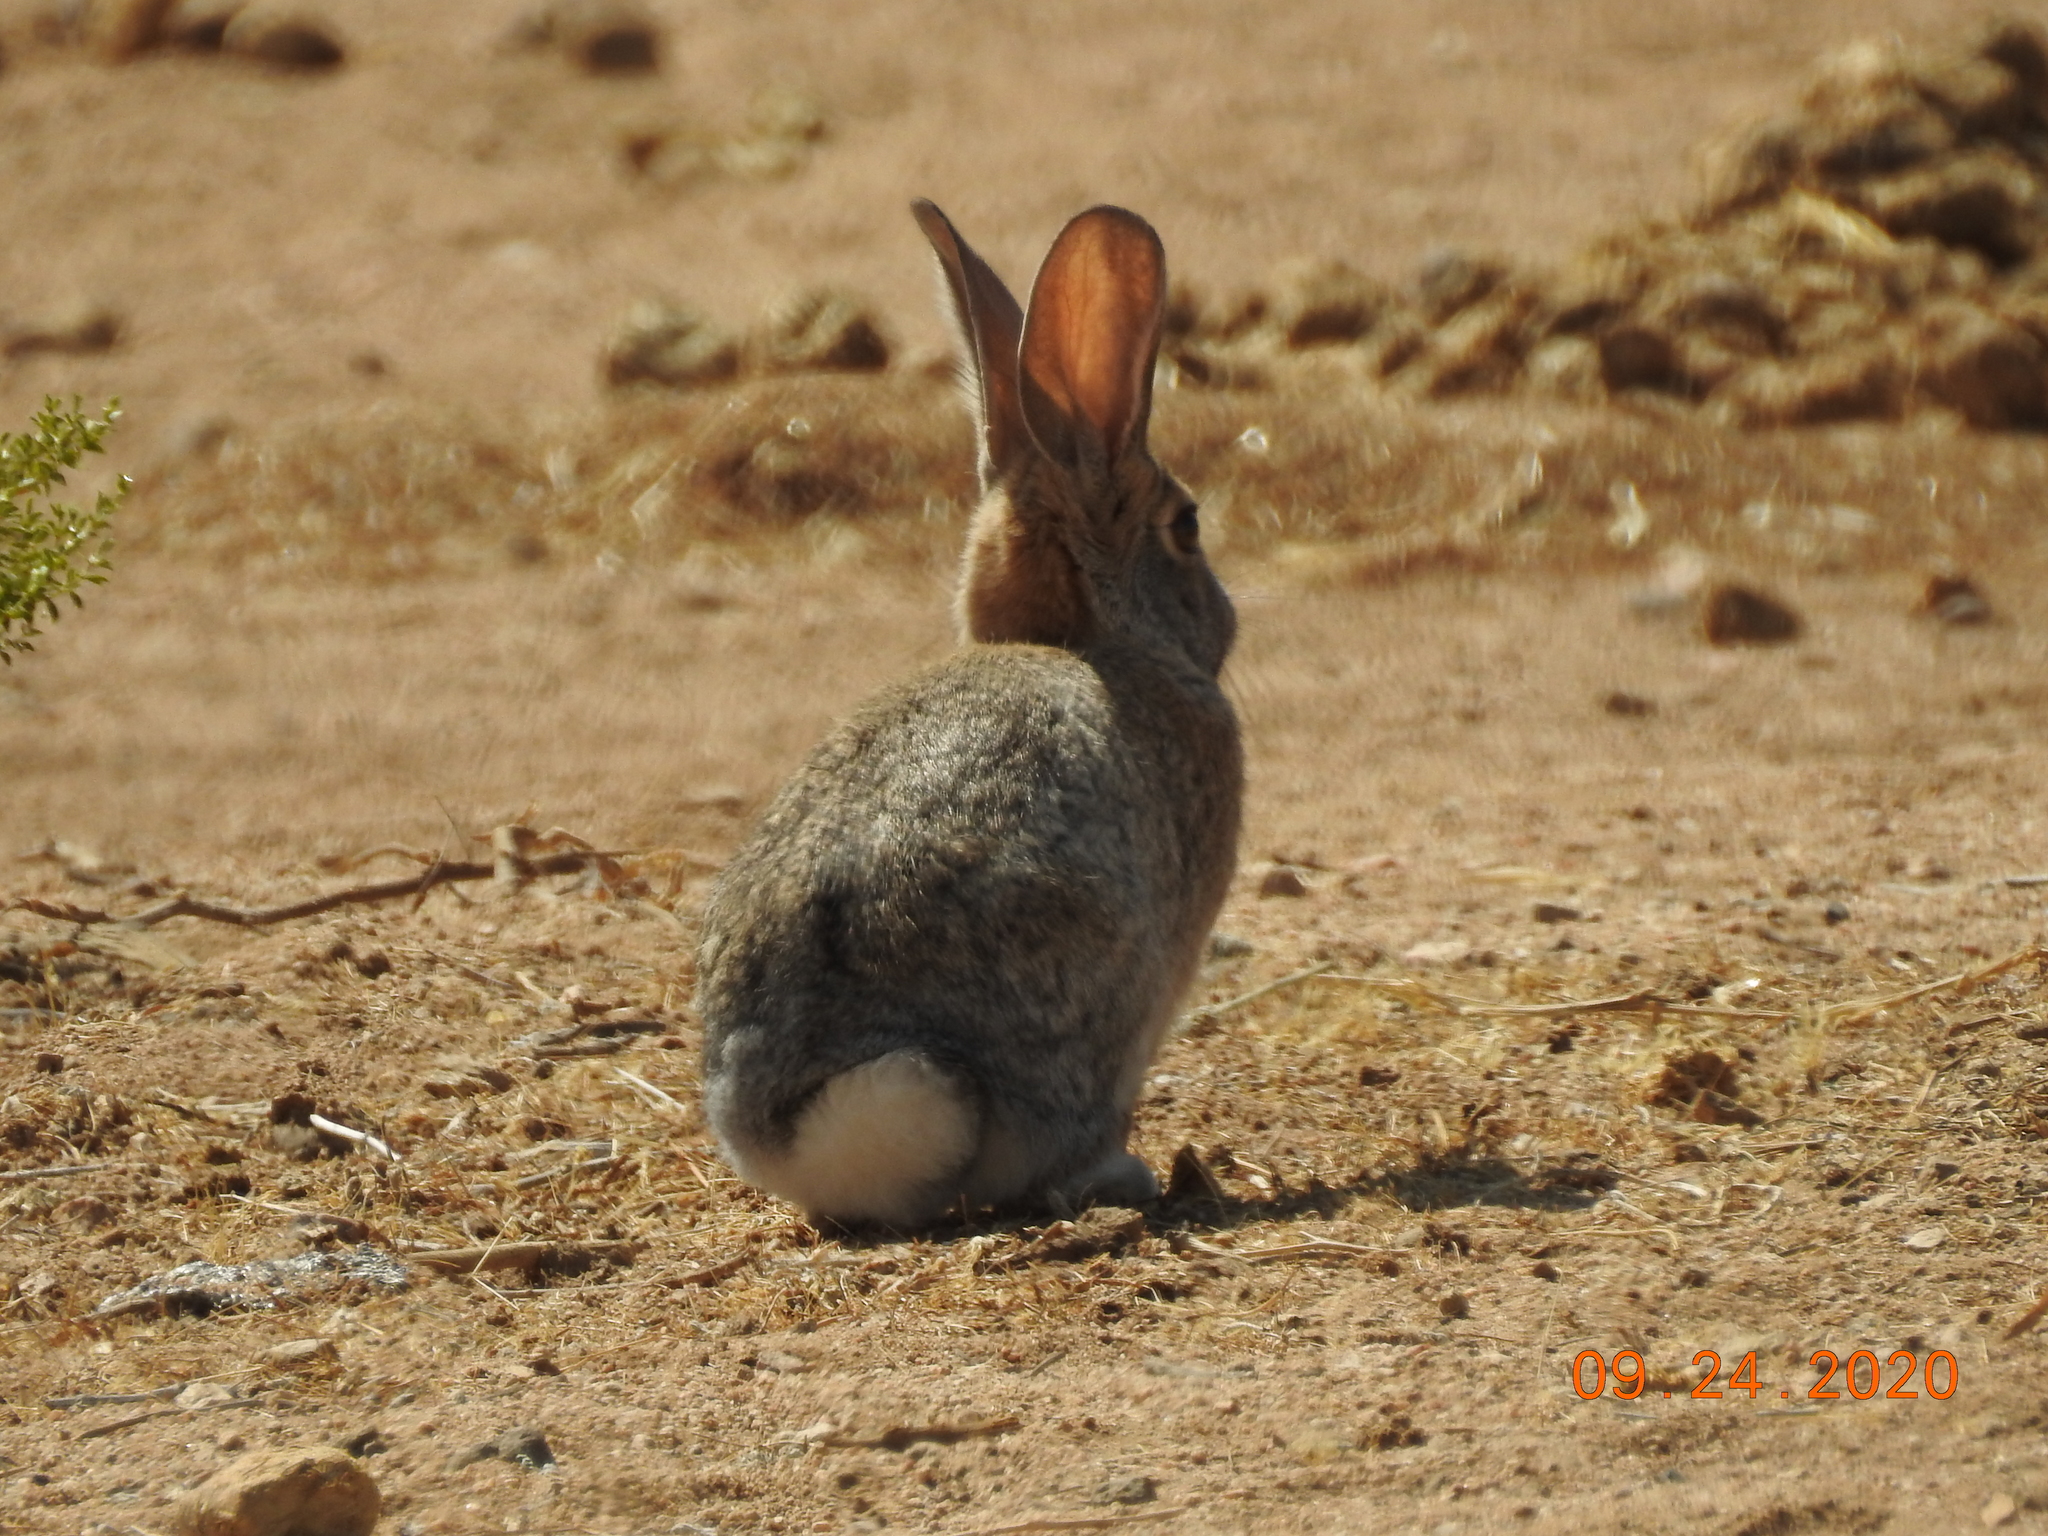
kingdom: Animalia
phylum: Chordata
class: Mammalia
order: Lagomorpha
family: Leporidae
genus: Sylvilagus
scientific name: Sylvilagus audubonii
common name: Desert cottontail
